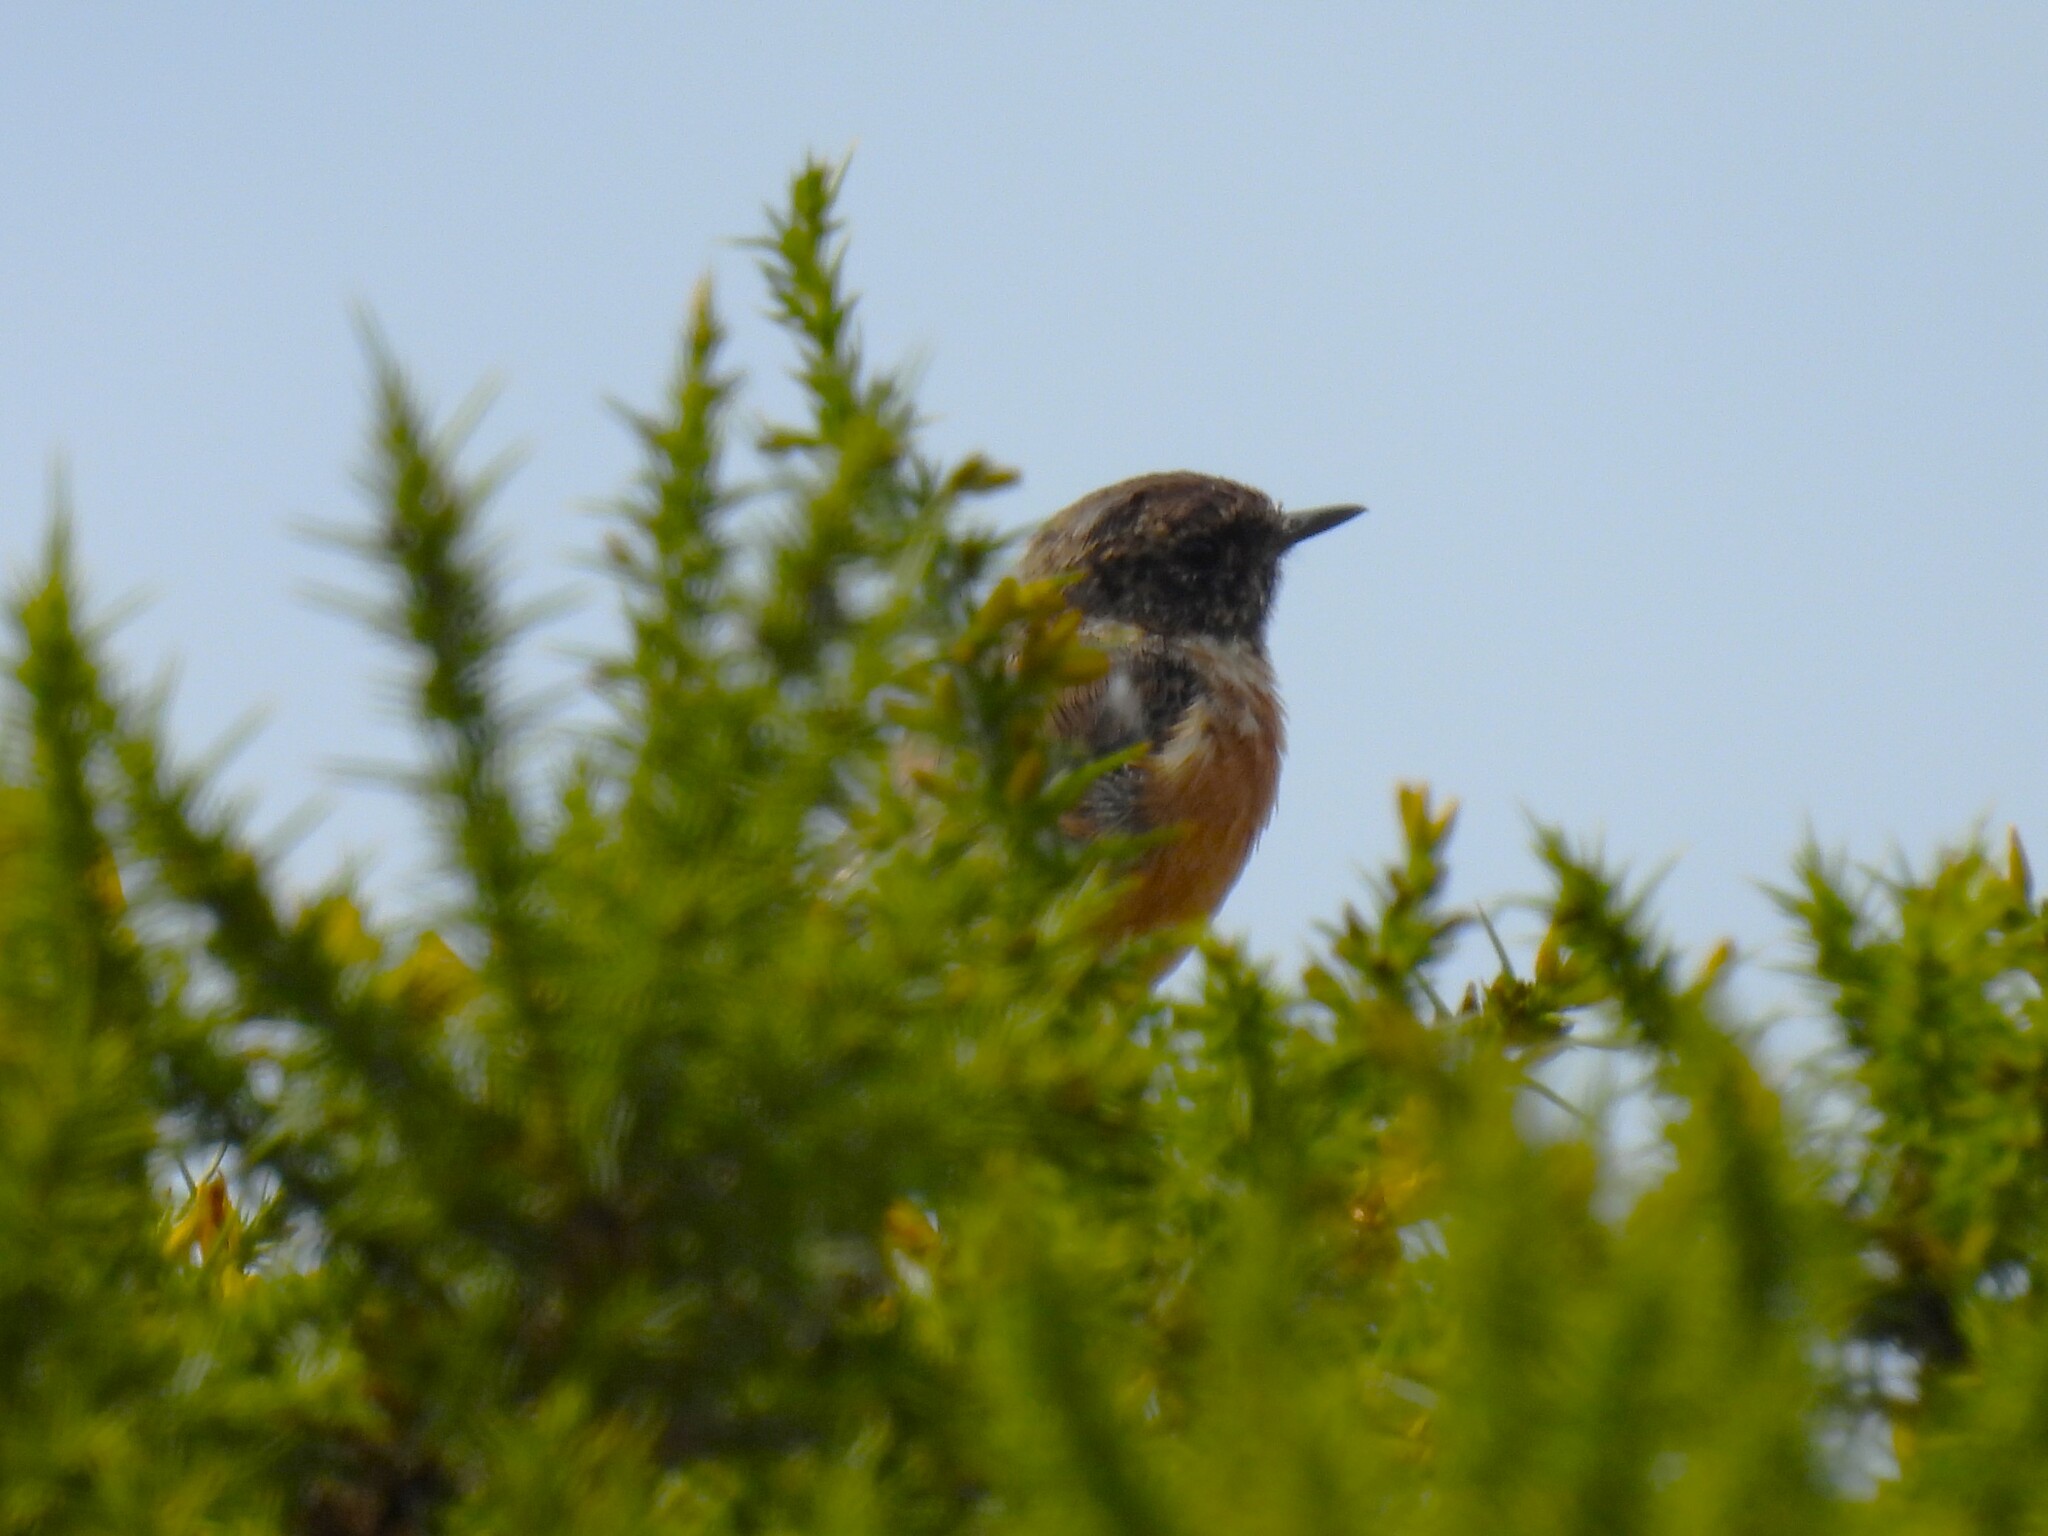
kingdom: Animalia
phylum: Chordata
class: Aves
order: Passeriformes
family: Muscicapidae
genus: Saxicola
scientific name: Saxicola rubicola
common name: European stonechat
